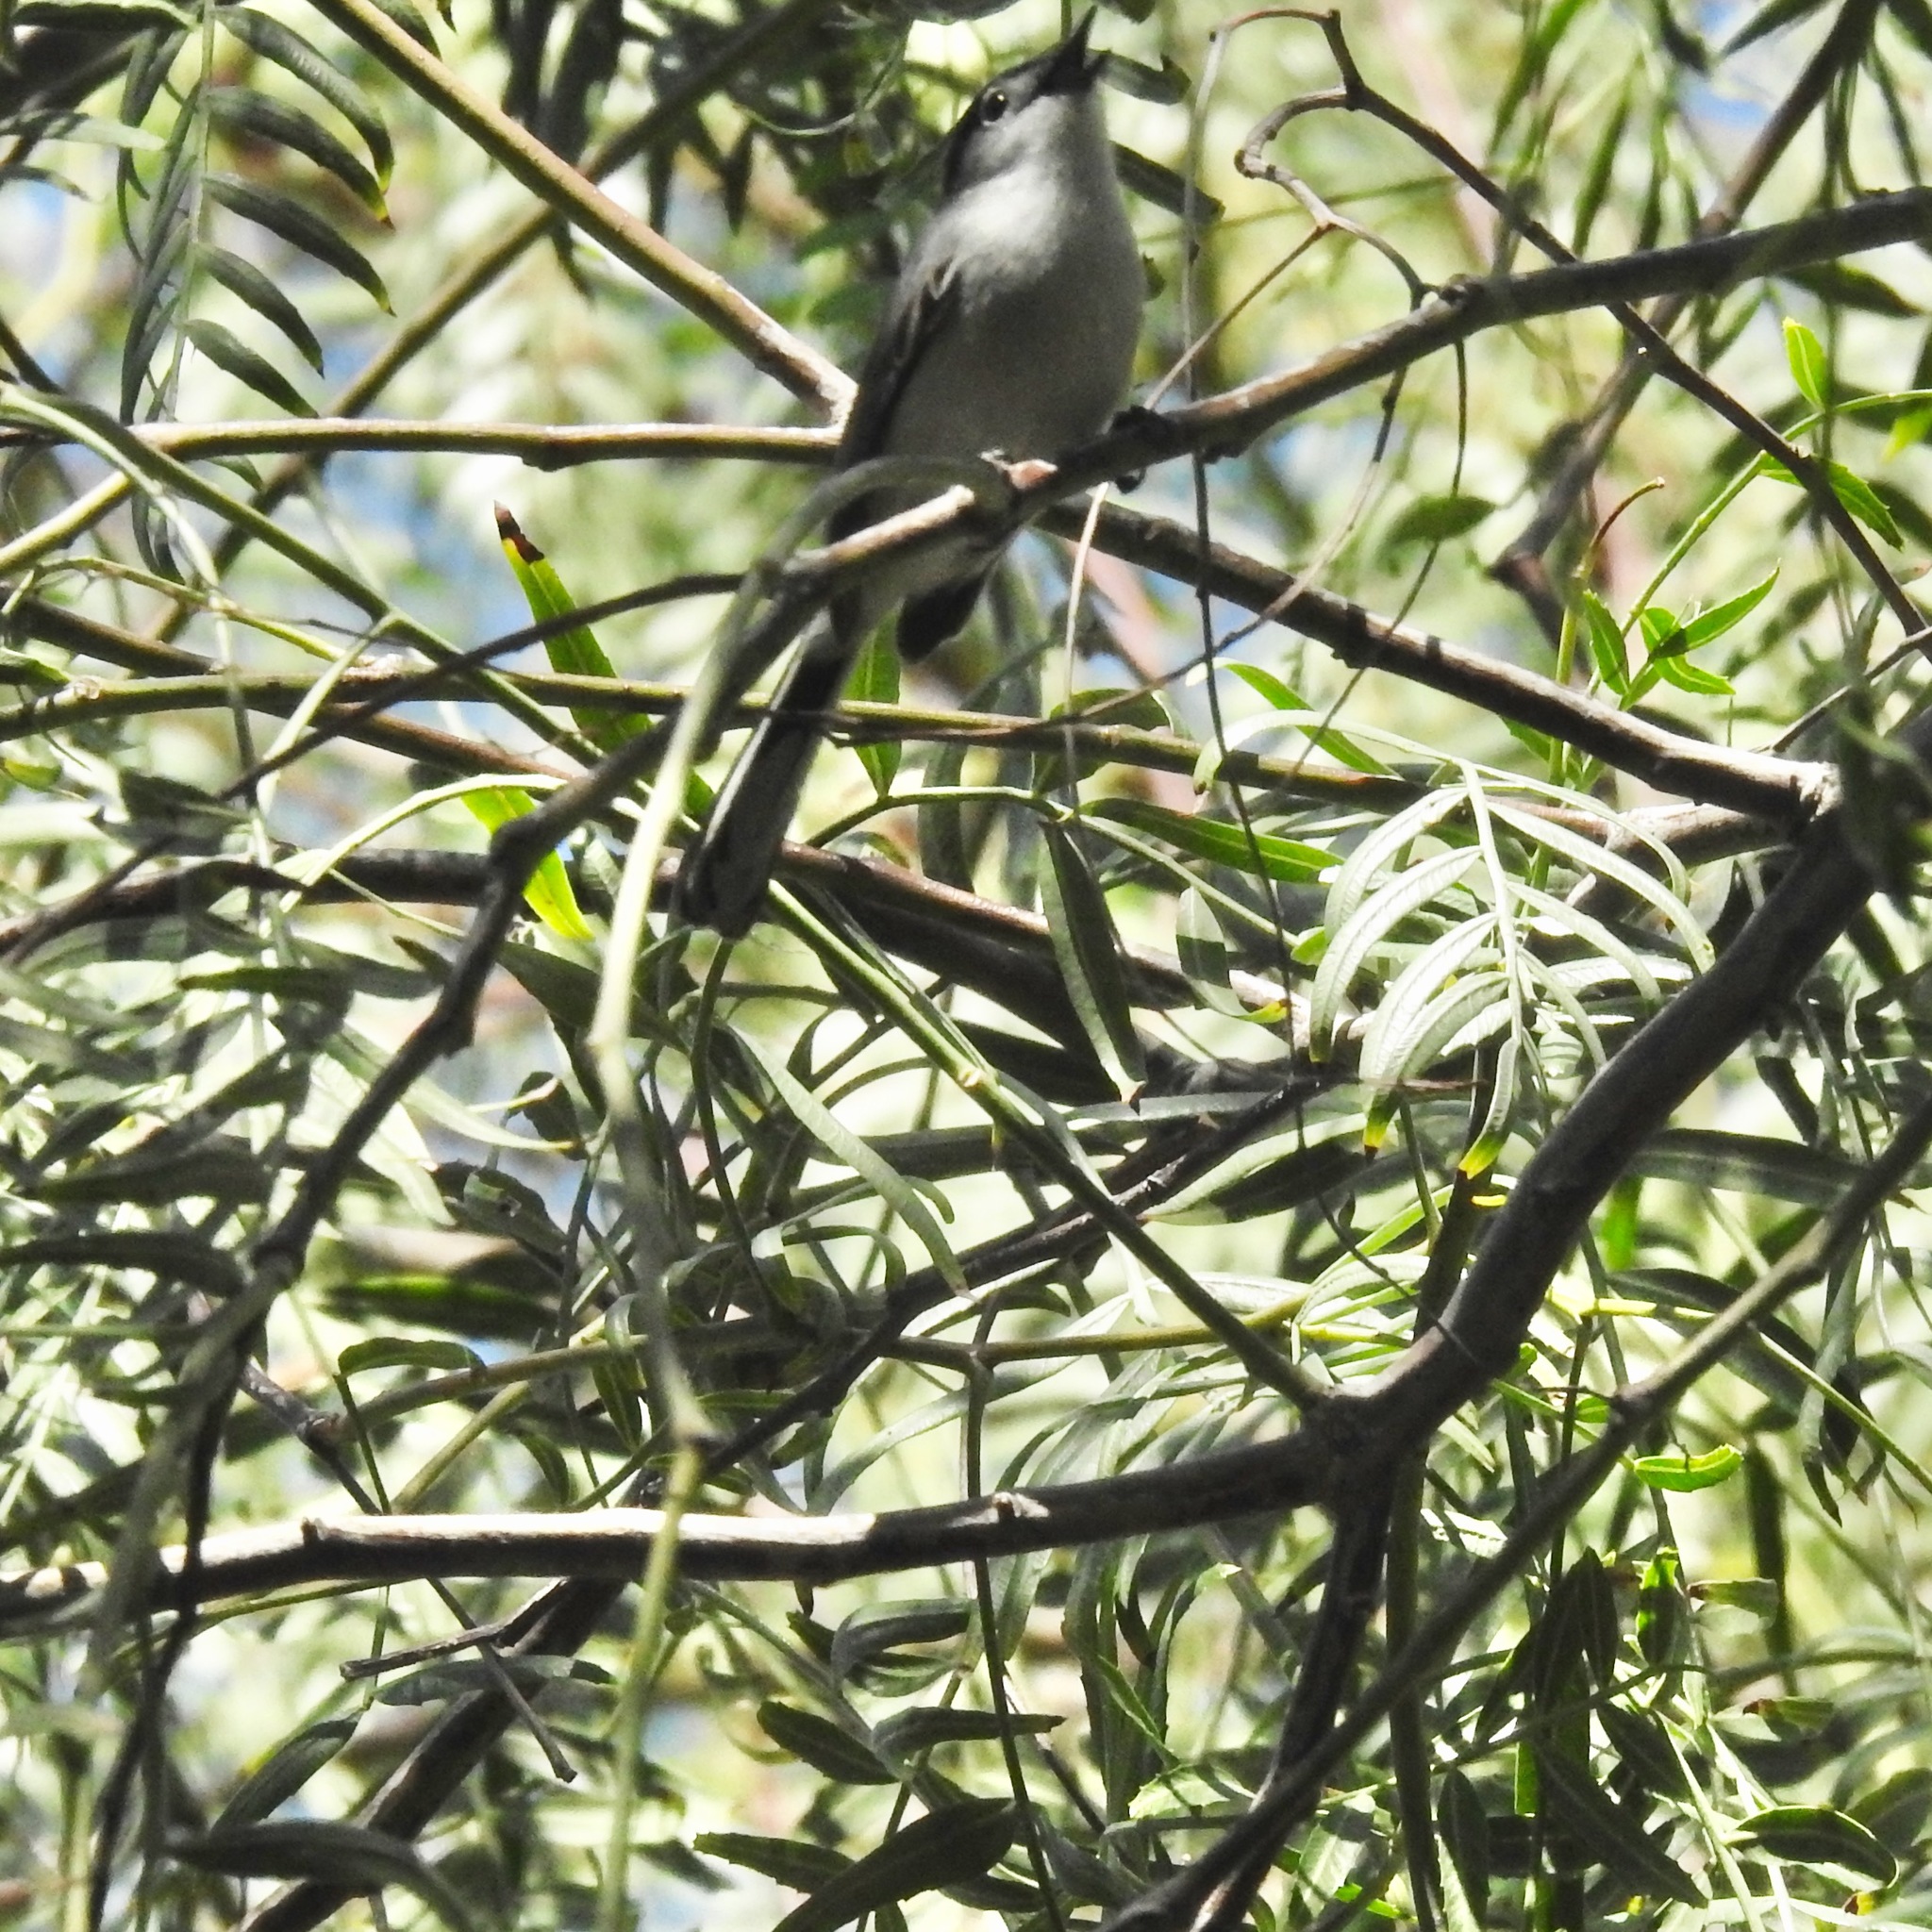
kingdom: Animalia
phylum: Chordata
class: Aves
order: Passeriformes
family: Polioptilidae
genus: Polioptila
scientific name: Polioptila californica
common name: California gnatcatcher
